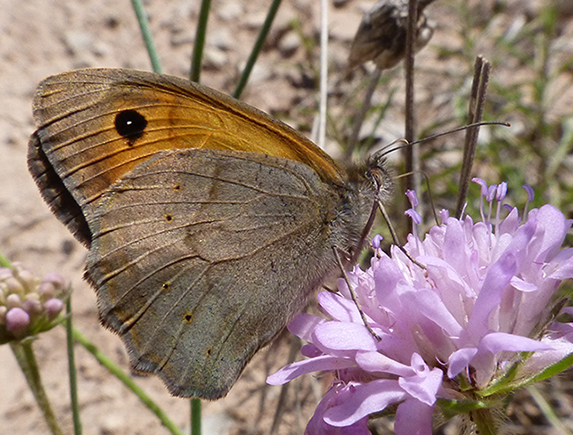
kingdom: Animalia
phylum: Arthropoda
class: Insecta
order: Lepidoptera
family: Nymphalidae
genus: Maniola
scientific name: Maniola jurtina
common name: Meadow brown
